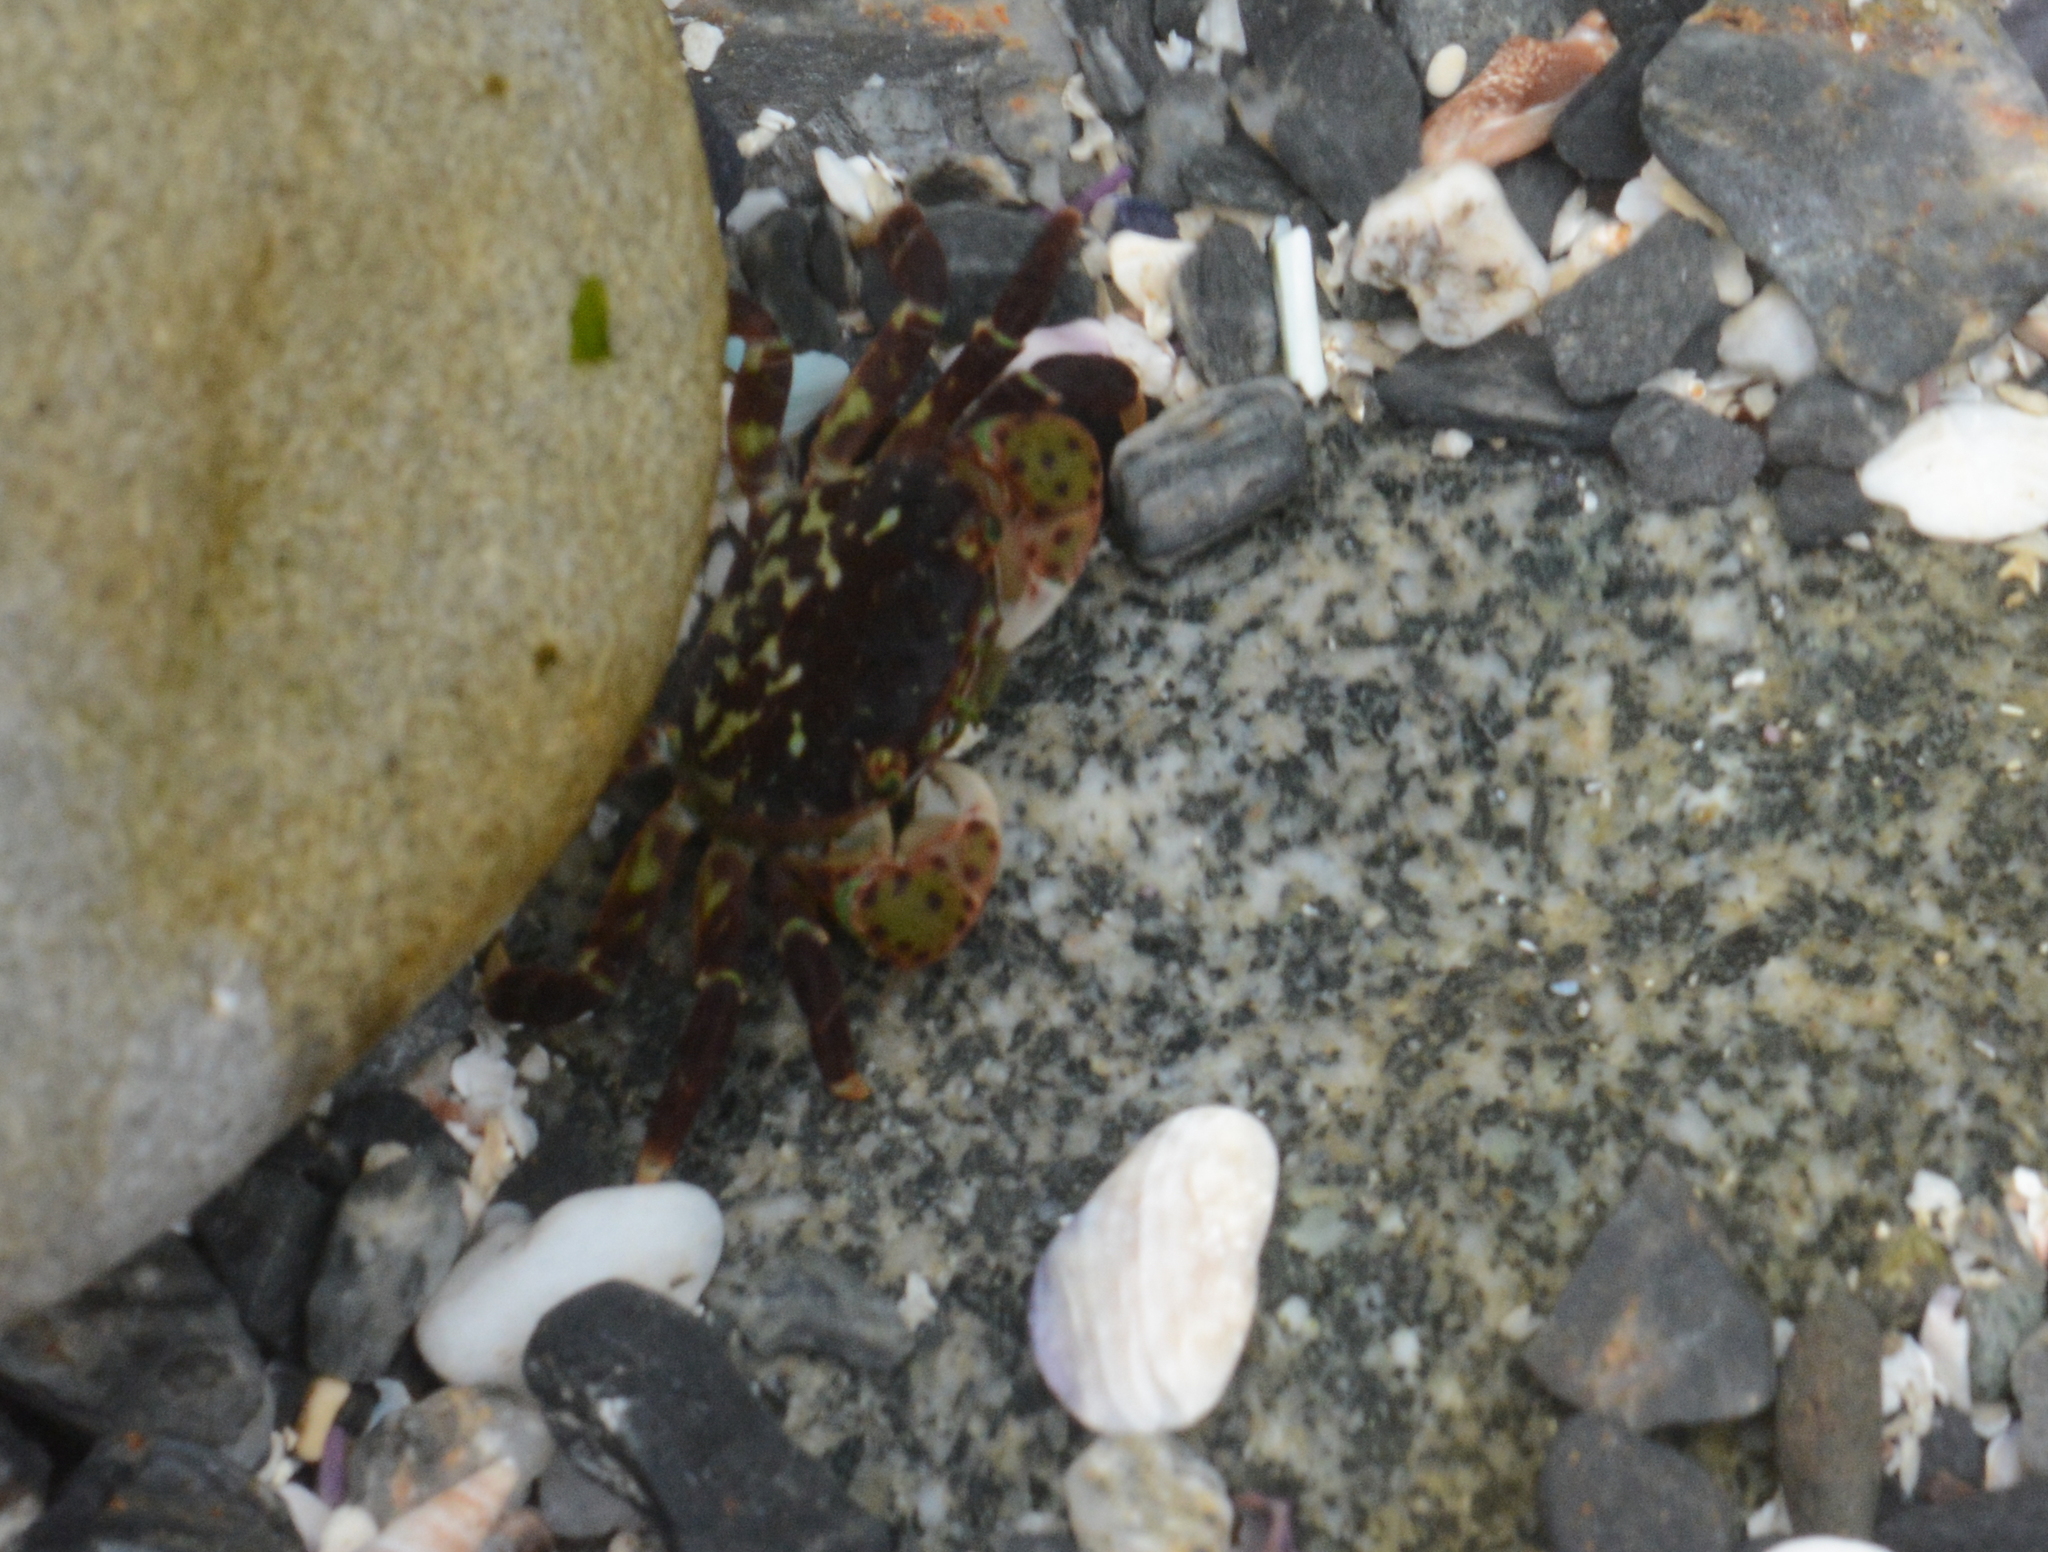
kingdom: Animalia
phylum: Arthropoda
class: Malacostraca
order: Decapoda
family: Varunidae
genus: Hemigrapsus
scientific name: Hemigrapsus nudus
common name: Purple shore crab
